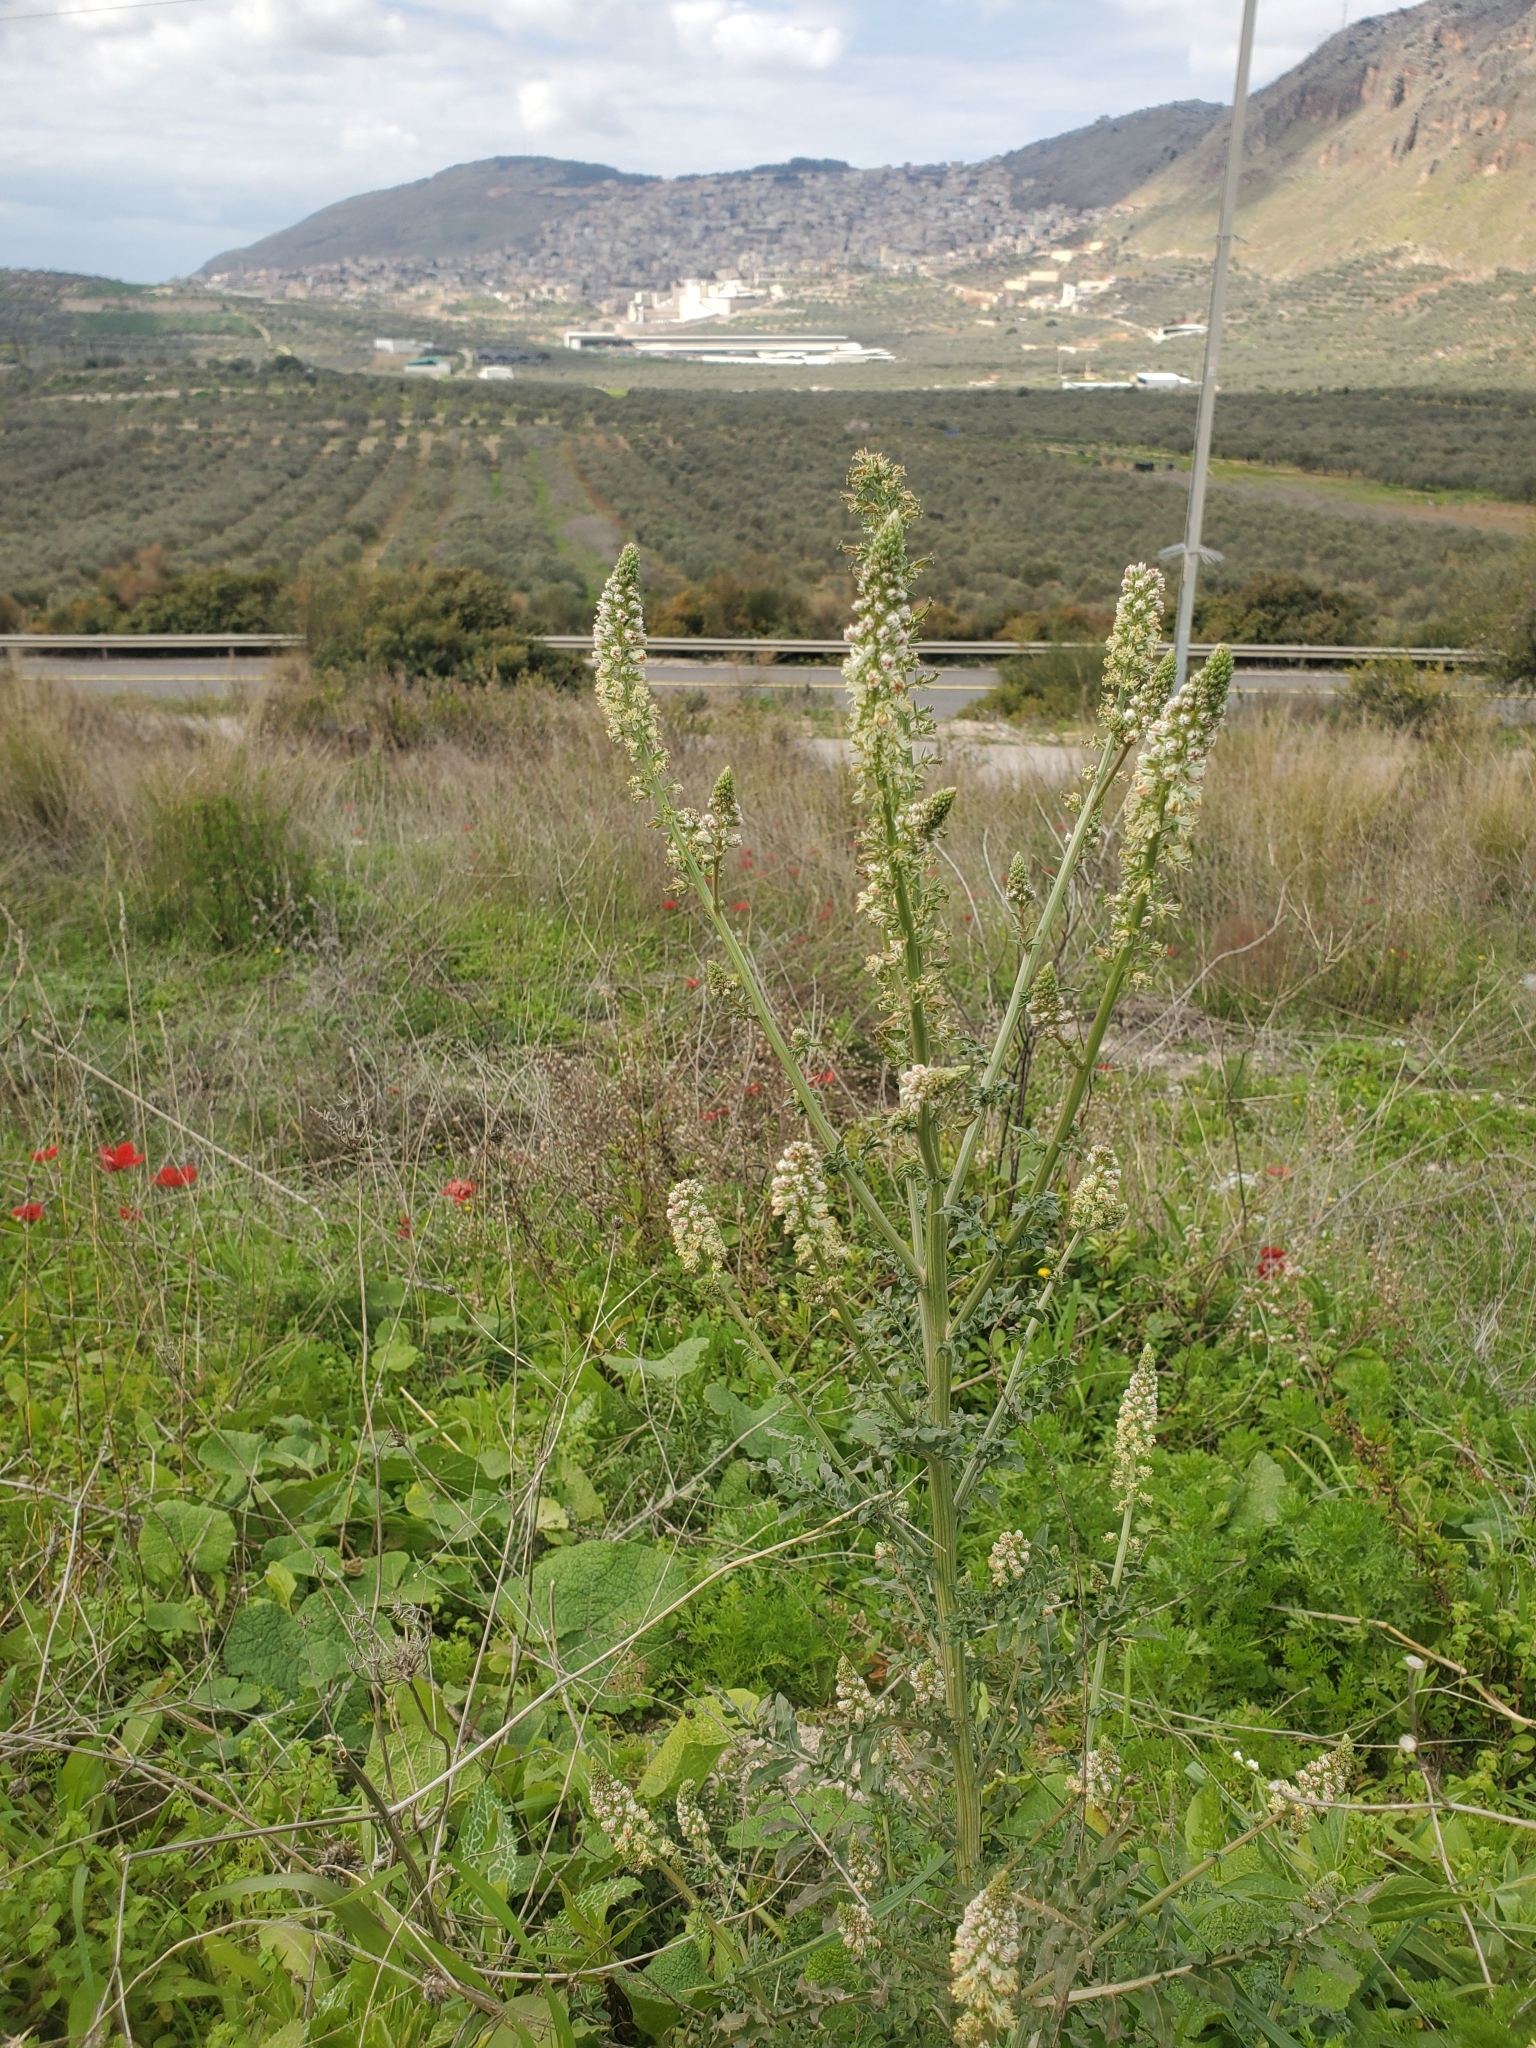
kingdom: Plantae
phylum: Tracheophyta
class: Magnoliopsida
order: Brassicales
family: Resedaceae
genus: Reseda
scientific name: Reseda alba
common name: White mignonette
